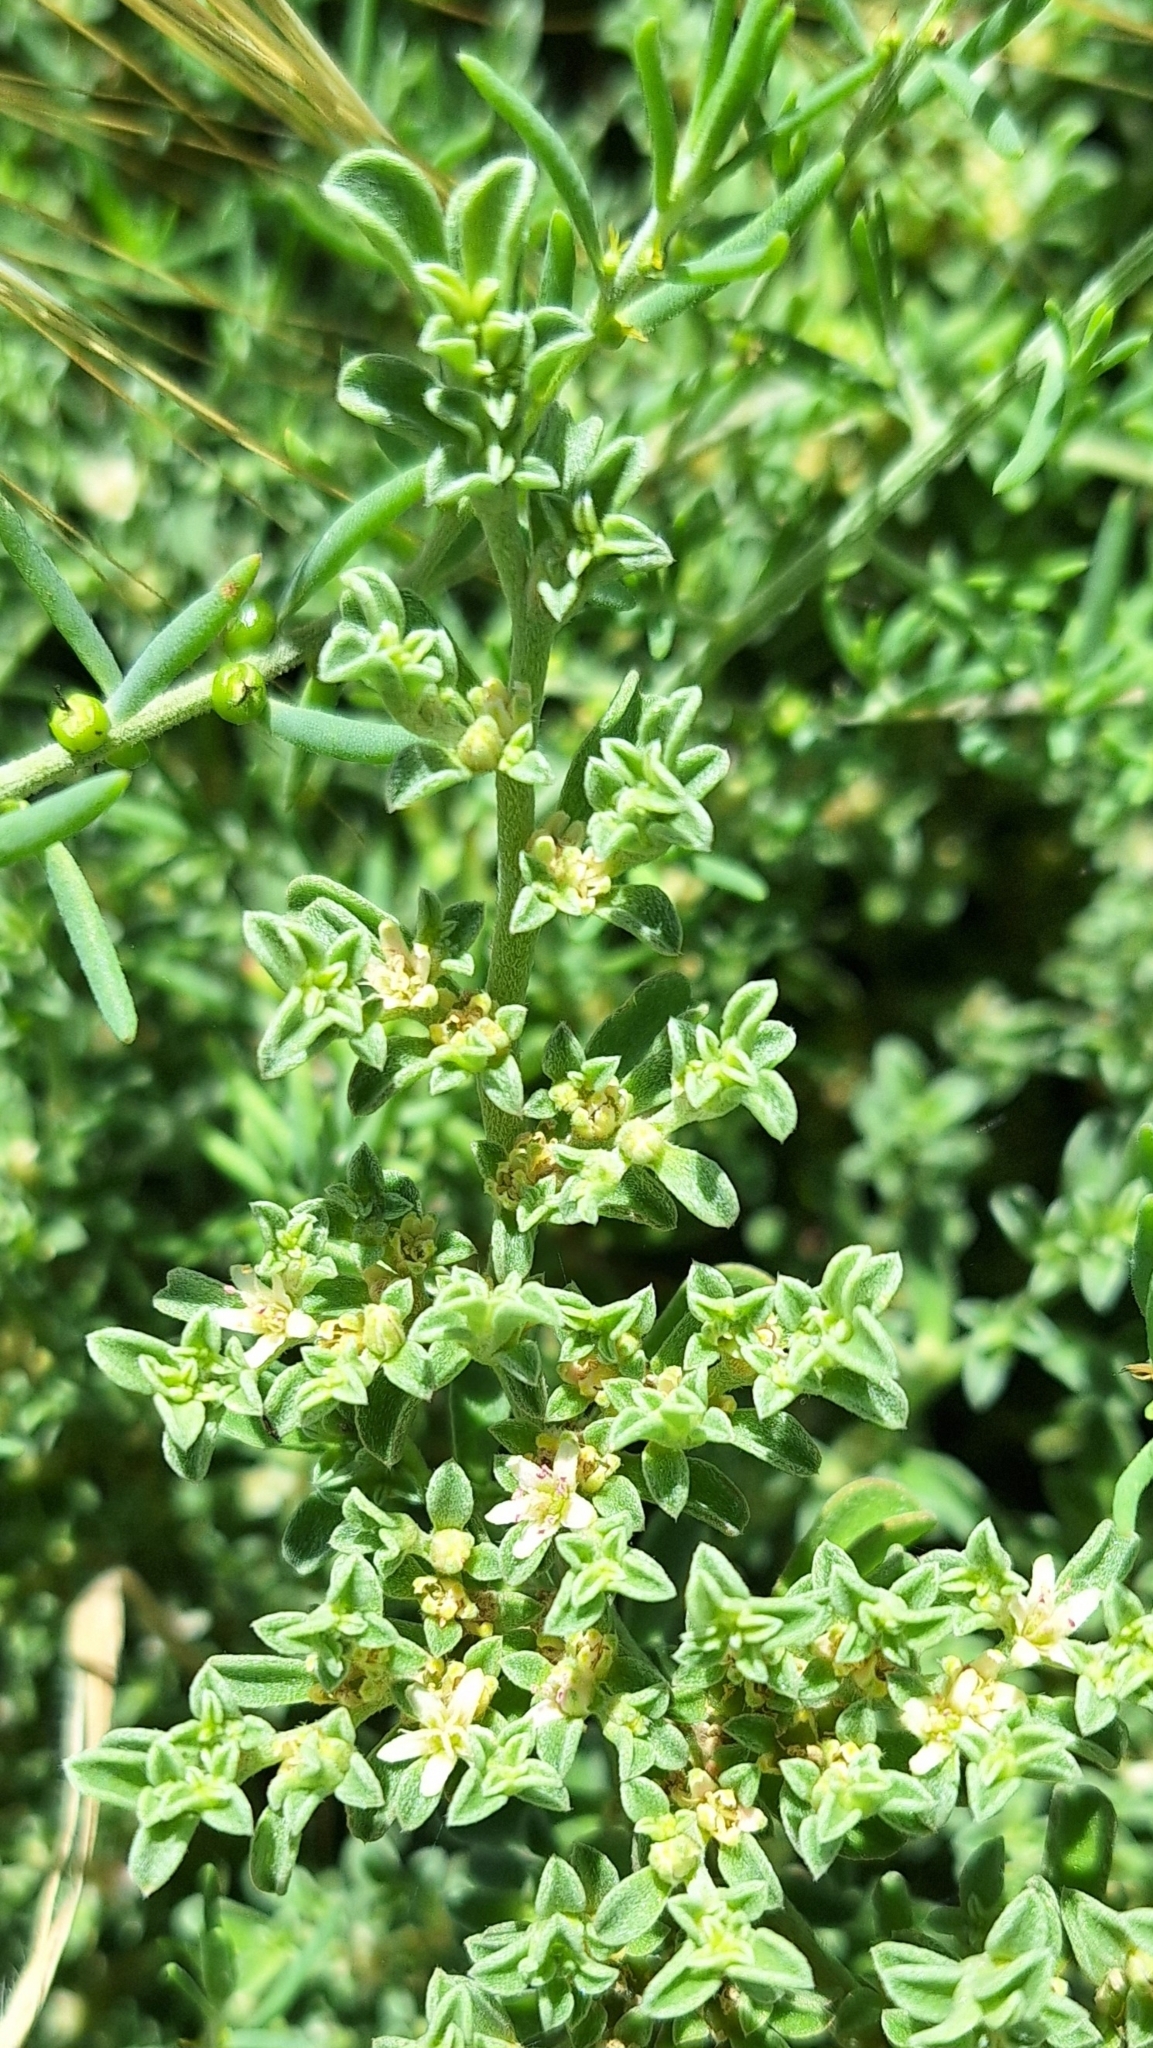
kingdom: Plantae
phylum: Tracheophyta
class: Magnoliopsida
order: Caryophyllales
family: Aizoaceae
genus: Aizoon
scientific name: Aizoon pubescens
